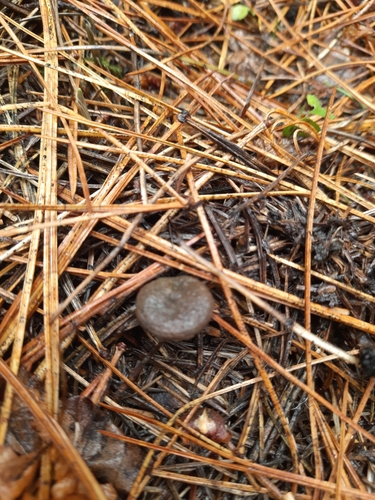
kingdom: Fungi
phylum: Basidiomycota
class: Agaricomycetes
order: Russulales
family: Russulaceae
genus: Lactarius
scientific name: Lactarius deterrimus
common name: False saffron milkcap
